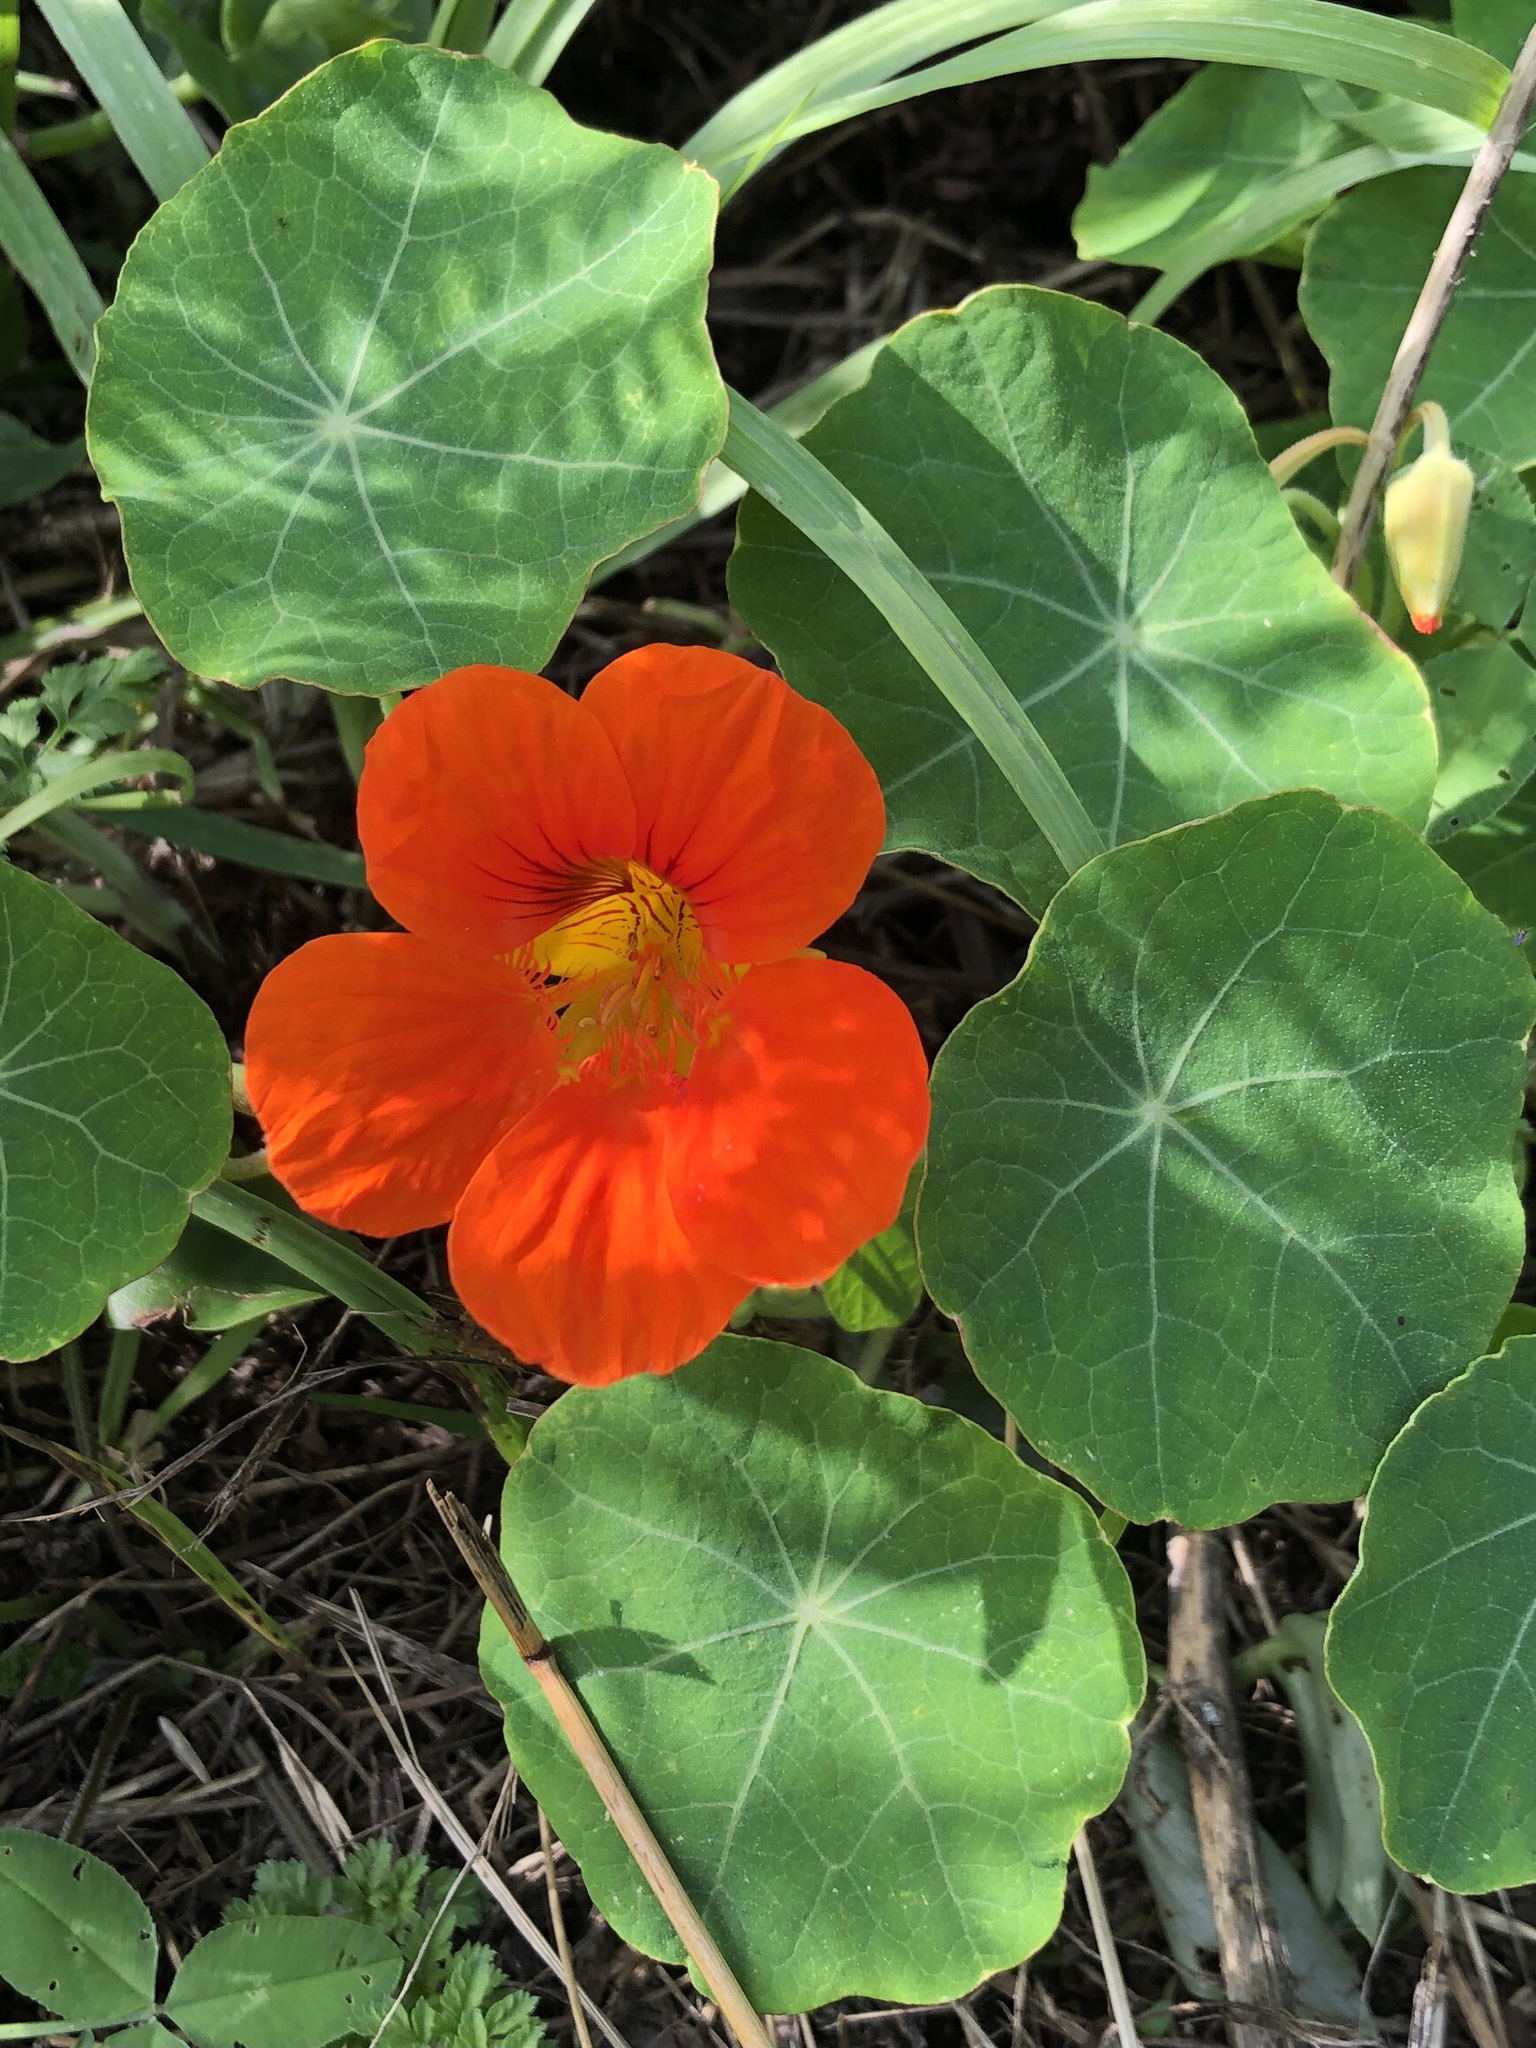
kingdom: Plantae
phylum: Tracheophyta
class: Magnoliopsida
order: Brassicales
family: Tropaeolaceae
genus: Tropaeolum
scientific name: Tropaeolum majus
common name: Nasturtium
